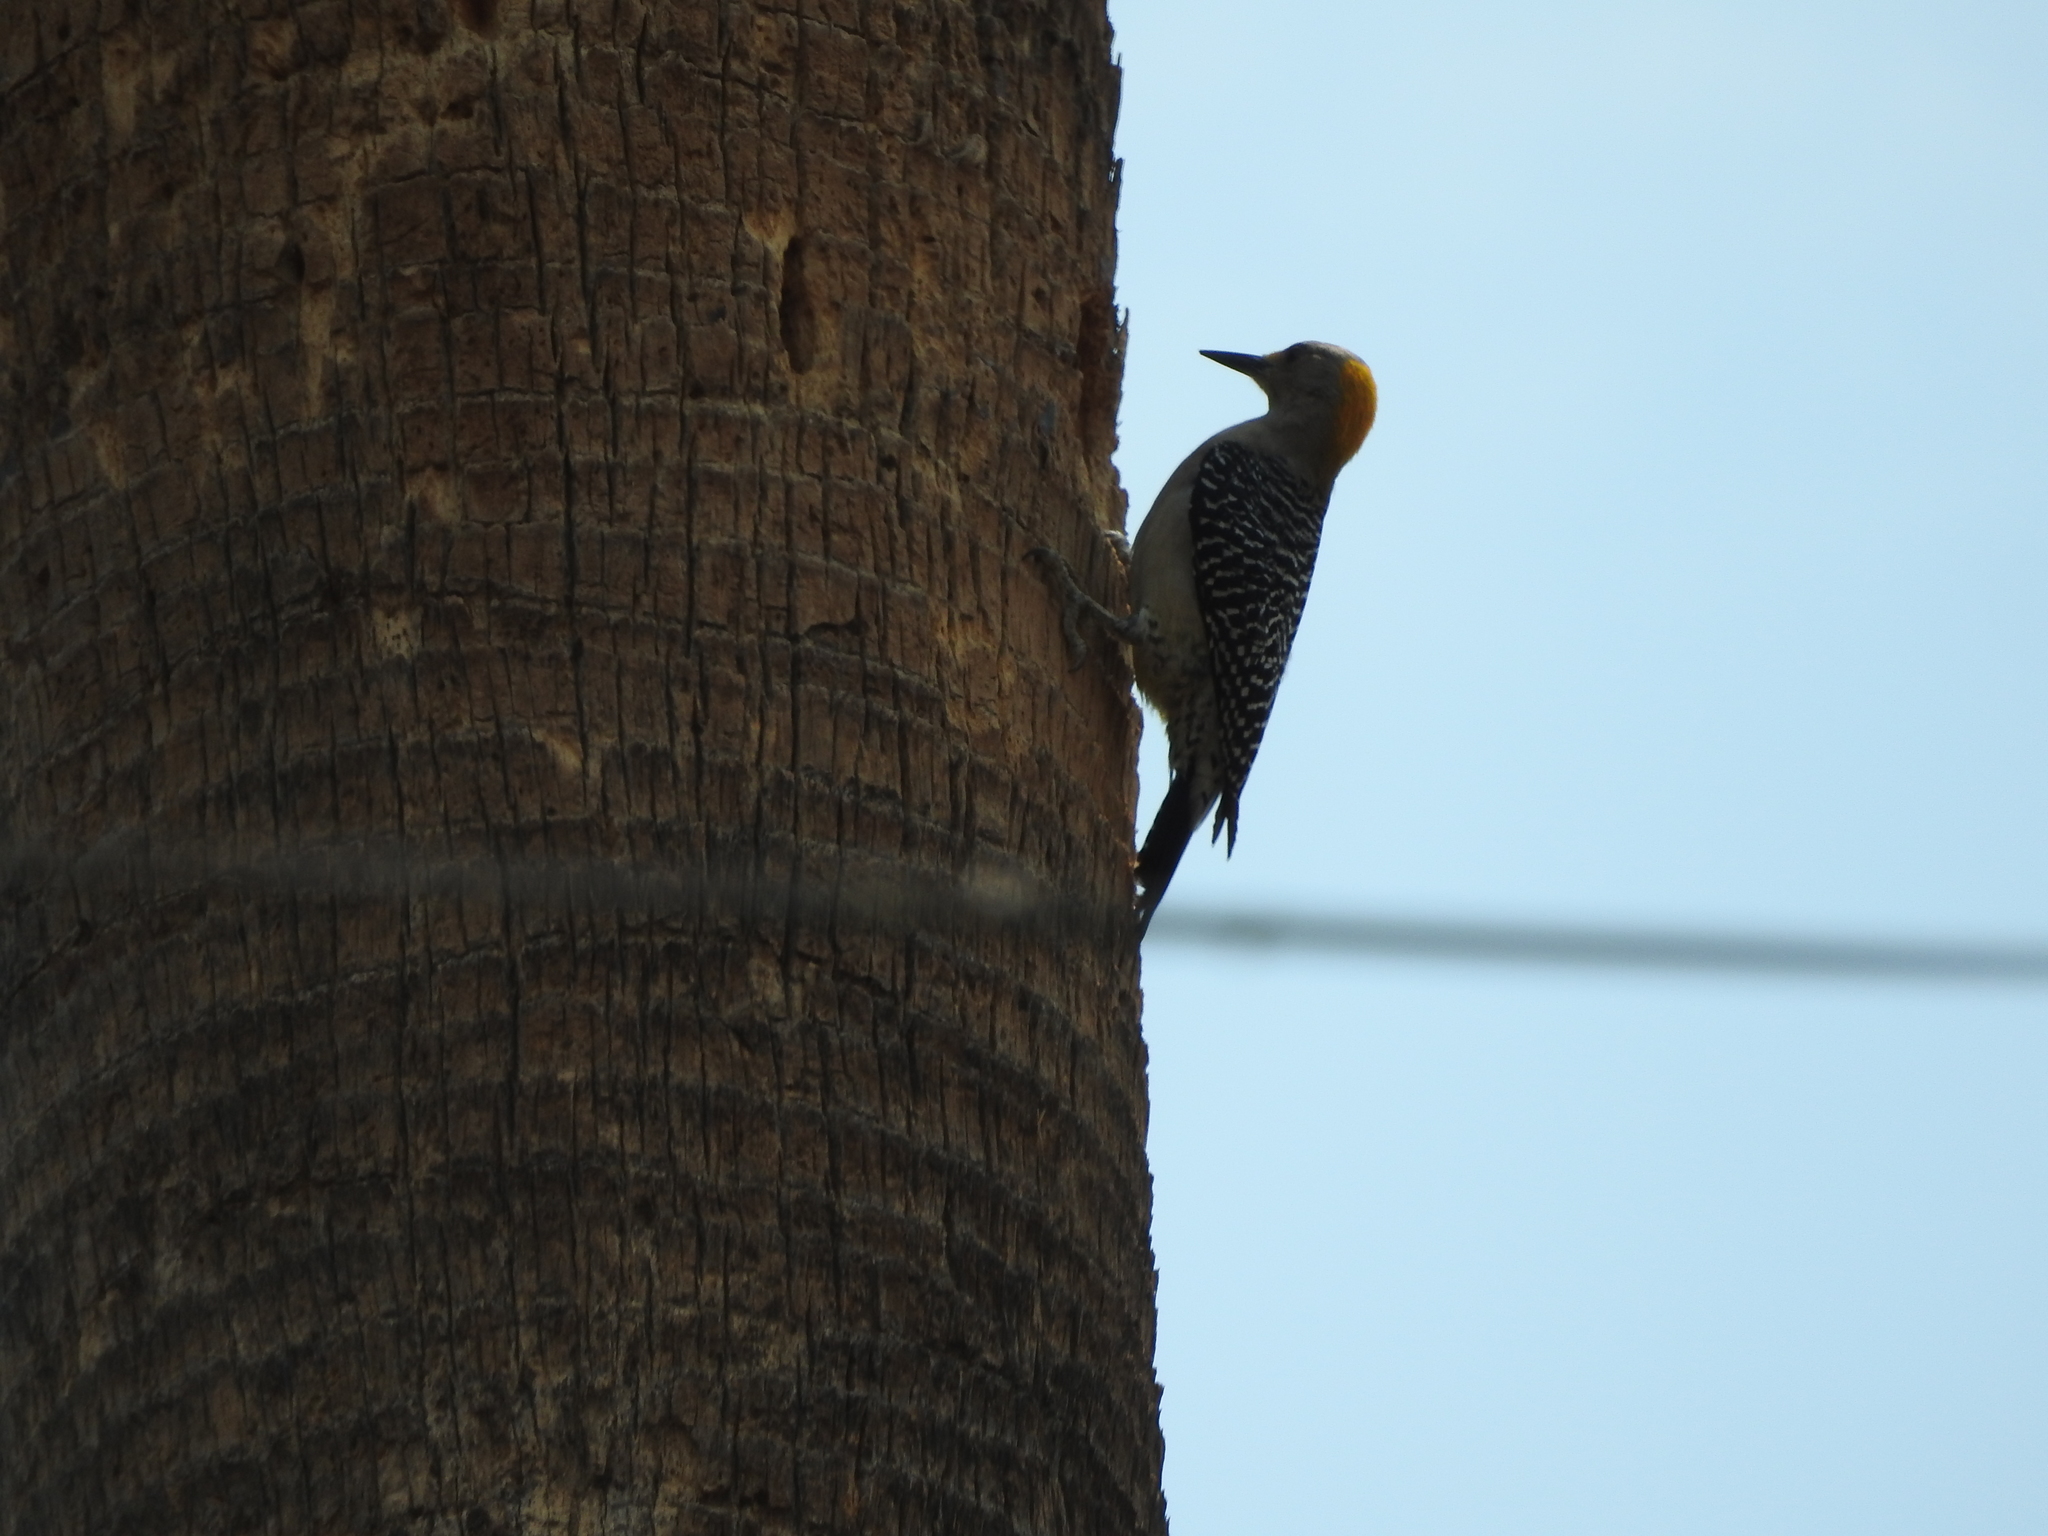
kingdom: Animalia
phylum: Chordata
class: Aves
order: Piciformes
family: Picidae
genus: Melanerpes
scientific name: Melanerpes aurifrons
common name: Golden-fronted woodpecker
